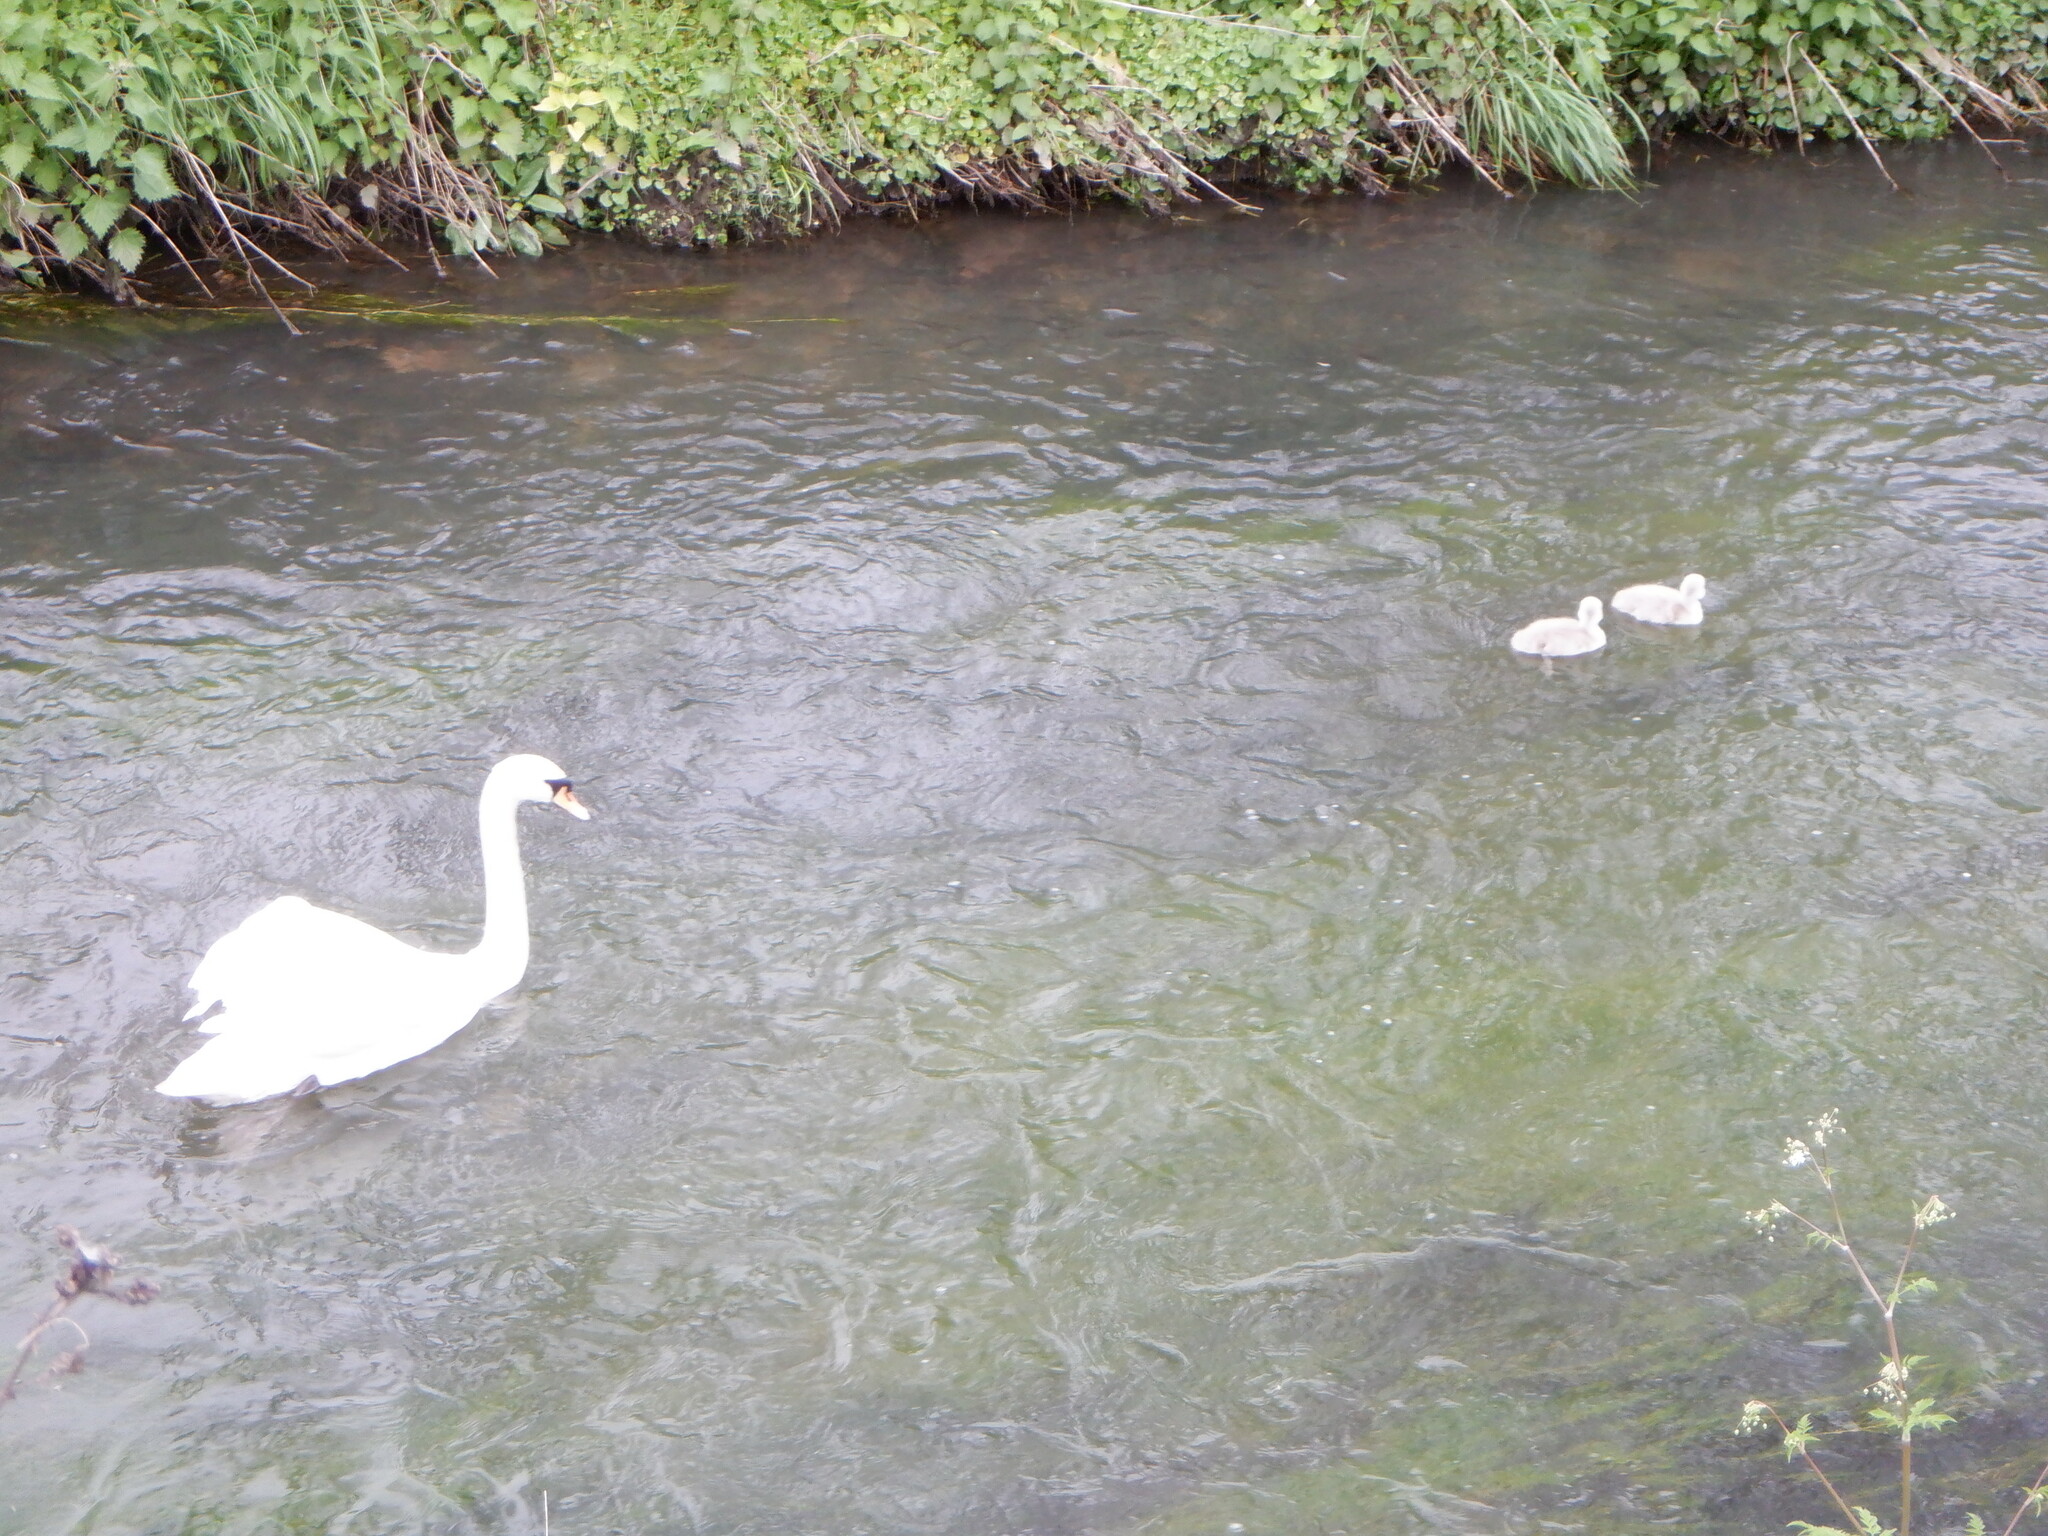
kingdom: Animalia
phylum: Chordata
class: Aves
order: Anseriformes
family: Anatidae
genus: Cygnus
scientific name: Cygnus olor
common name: Mute swan
